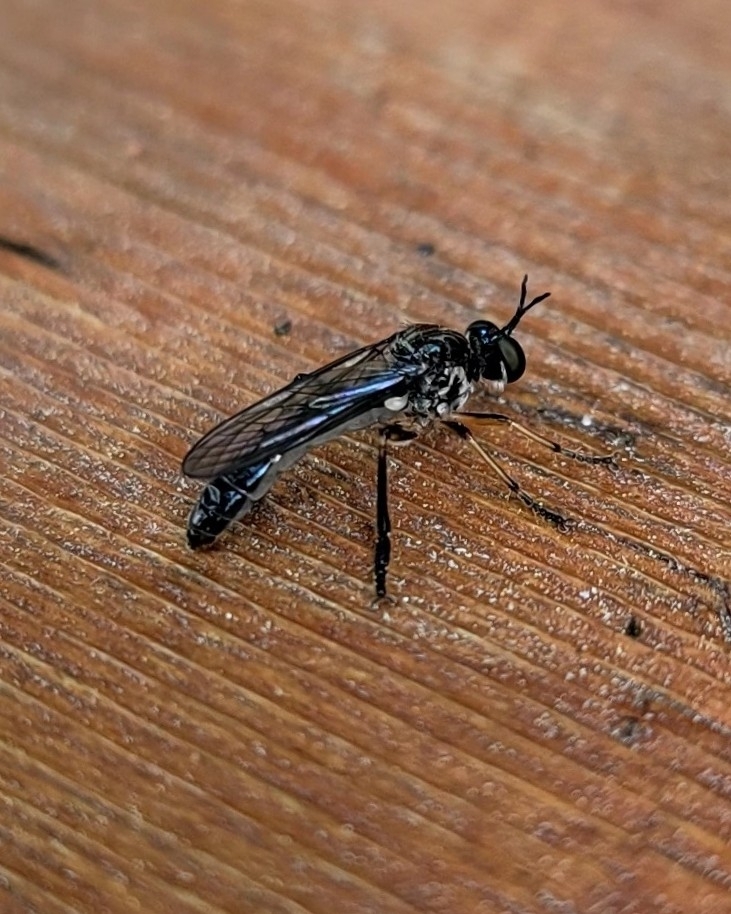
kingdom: Animalia
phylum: Arthropoda
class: Insecta
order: Diptera
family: Asilidae
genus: Dioctria
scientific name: Dioctria hyalipennis
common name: Stripe-legged robberfly
